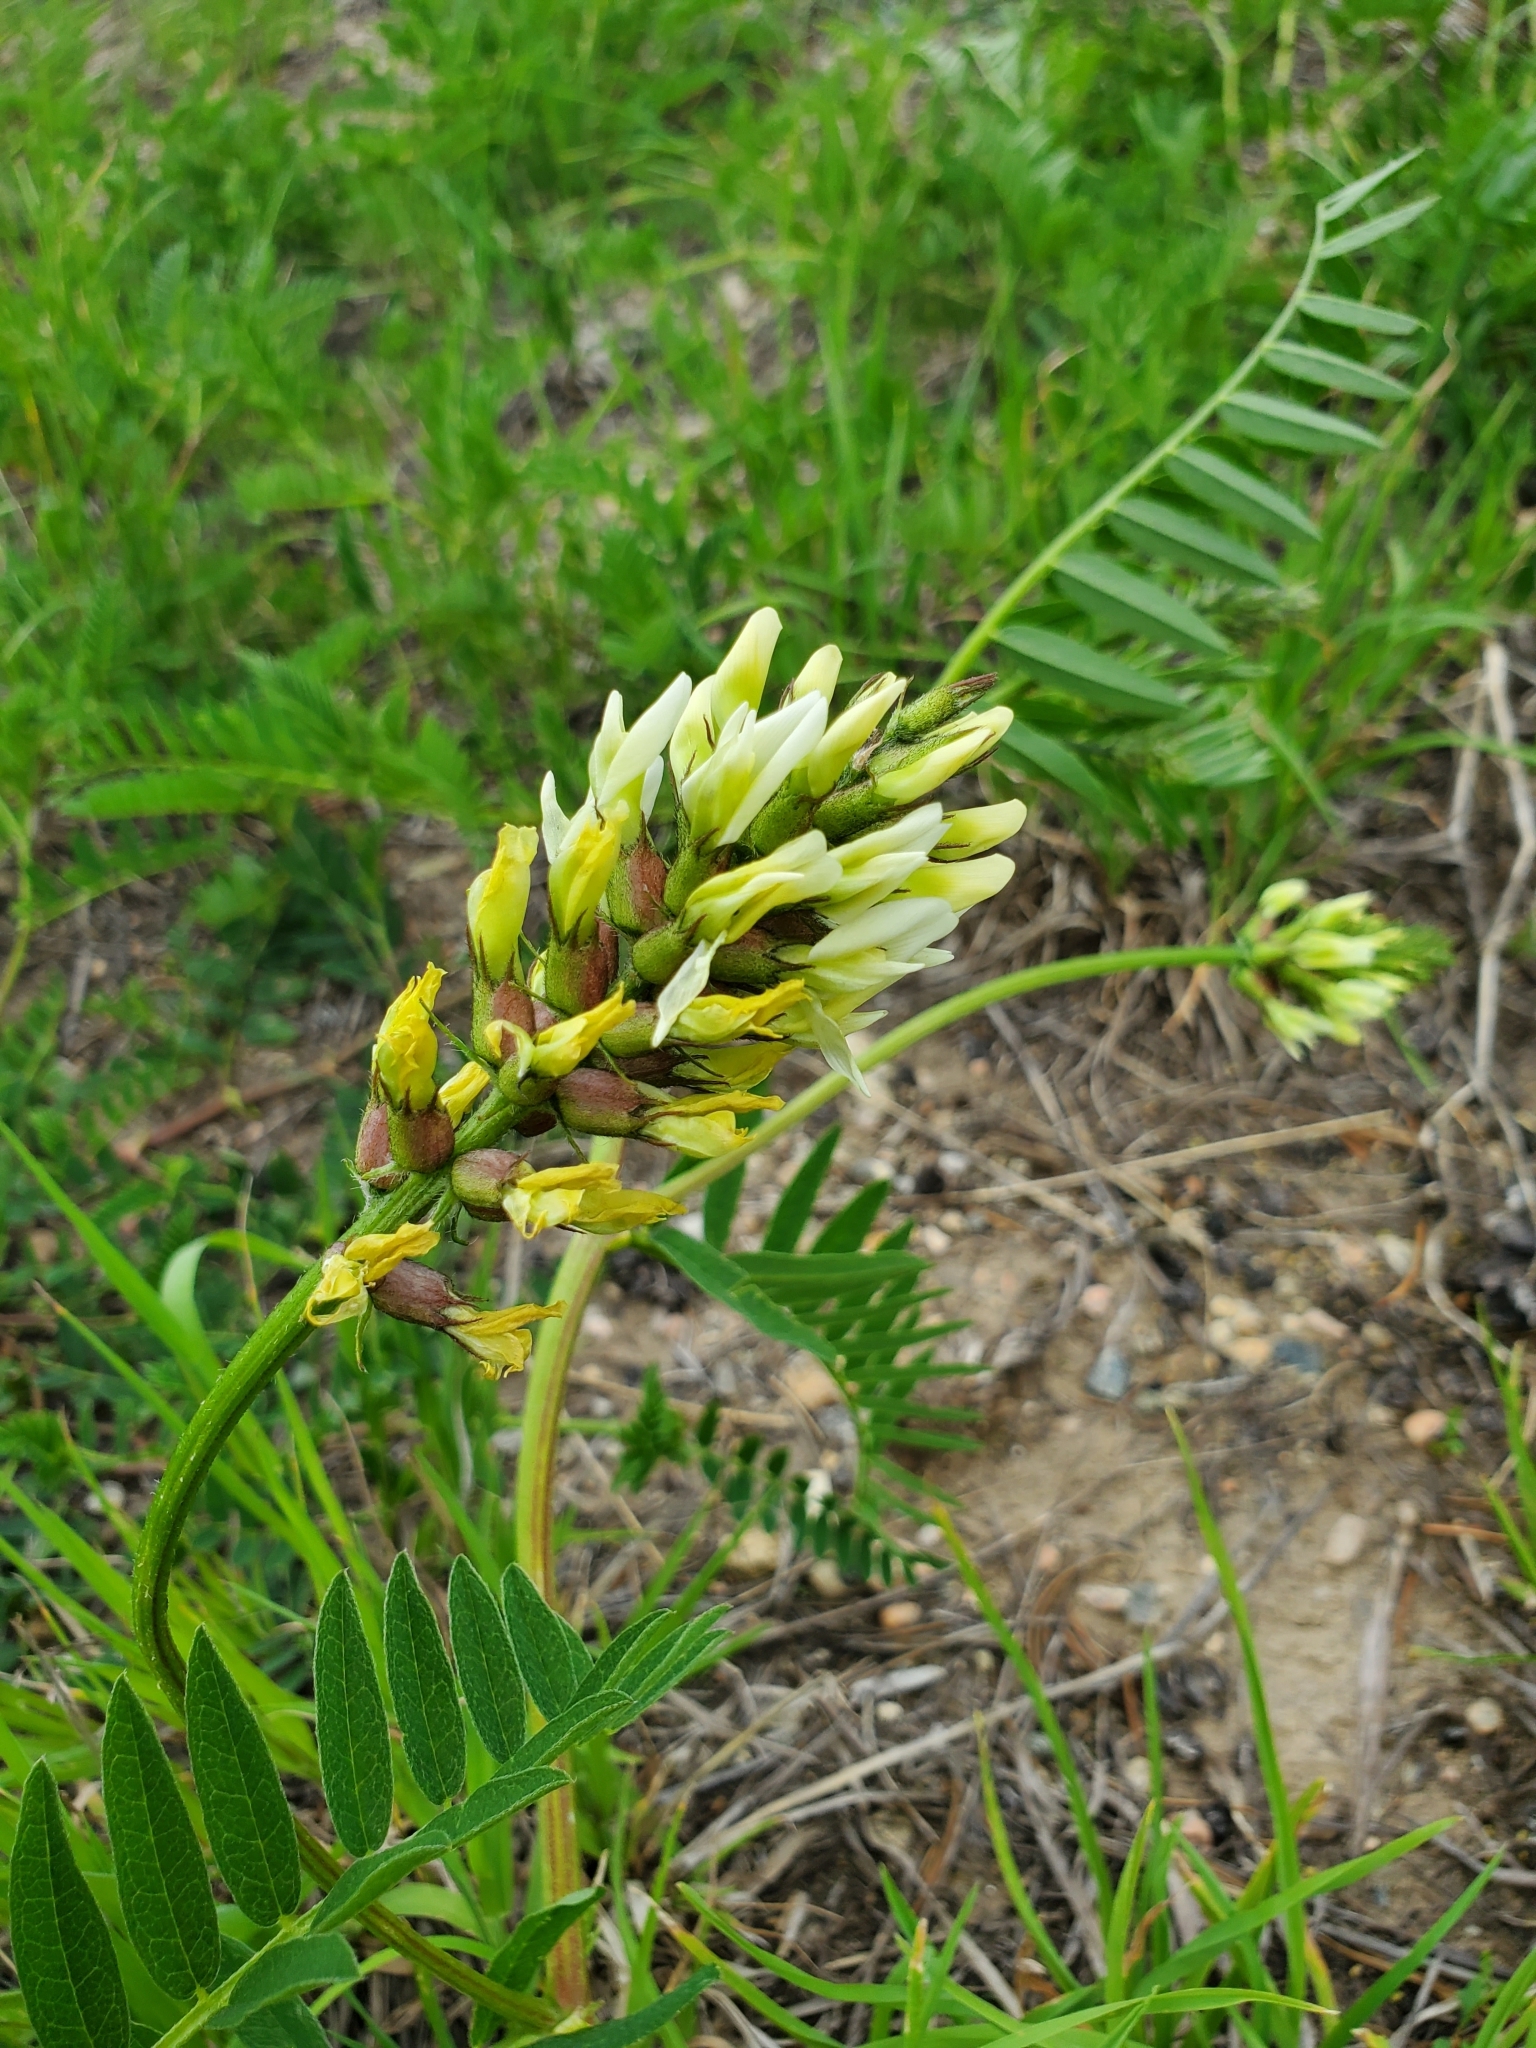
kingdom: Plantae
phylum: Tracheophyta
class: Magnoliopsida
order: Fabales
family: Fabaceae
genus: Astragalus
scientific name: Astragalus cicer
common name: Chick-pea milk-vetch
